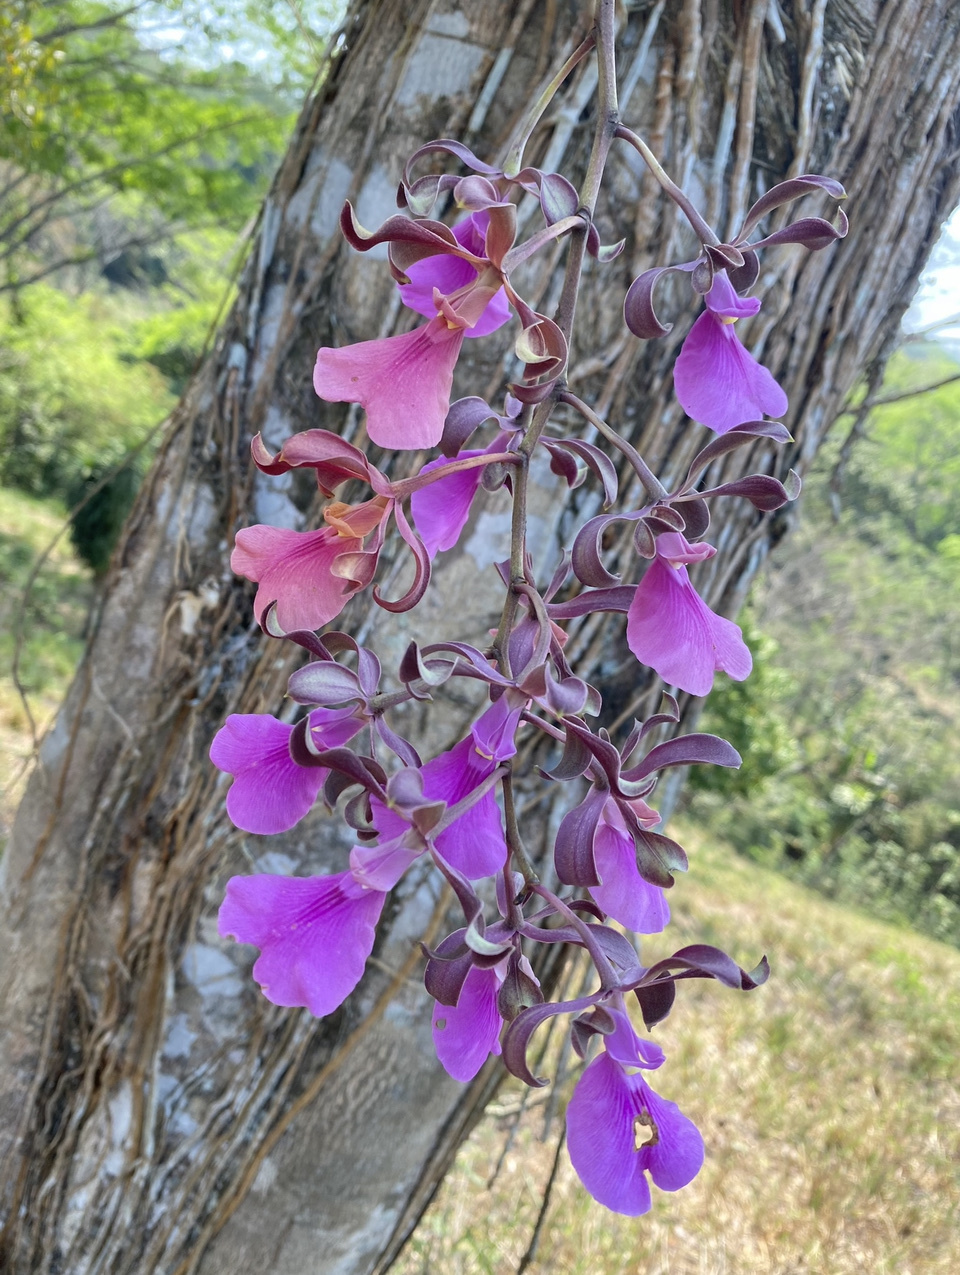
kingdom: Plantae
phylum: Tracheophyta
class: Liliopsida
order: Asparagales
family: Orchidaceae
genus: Encyclia
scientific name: Encyclia cordigera
